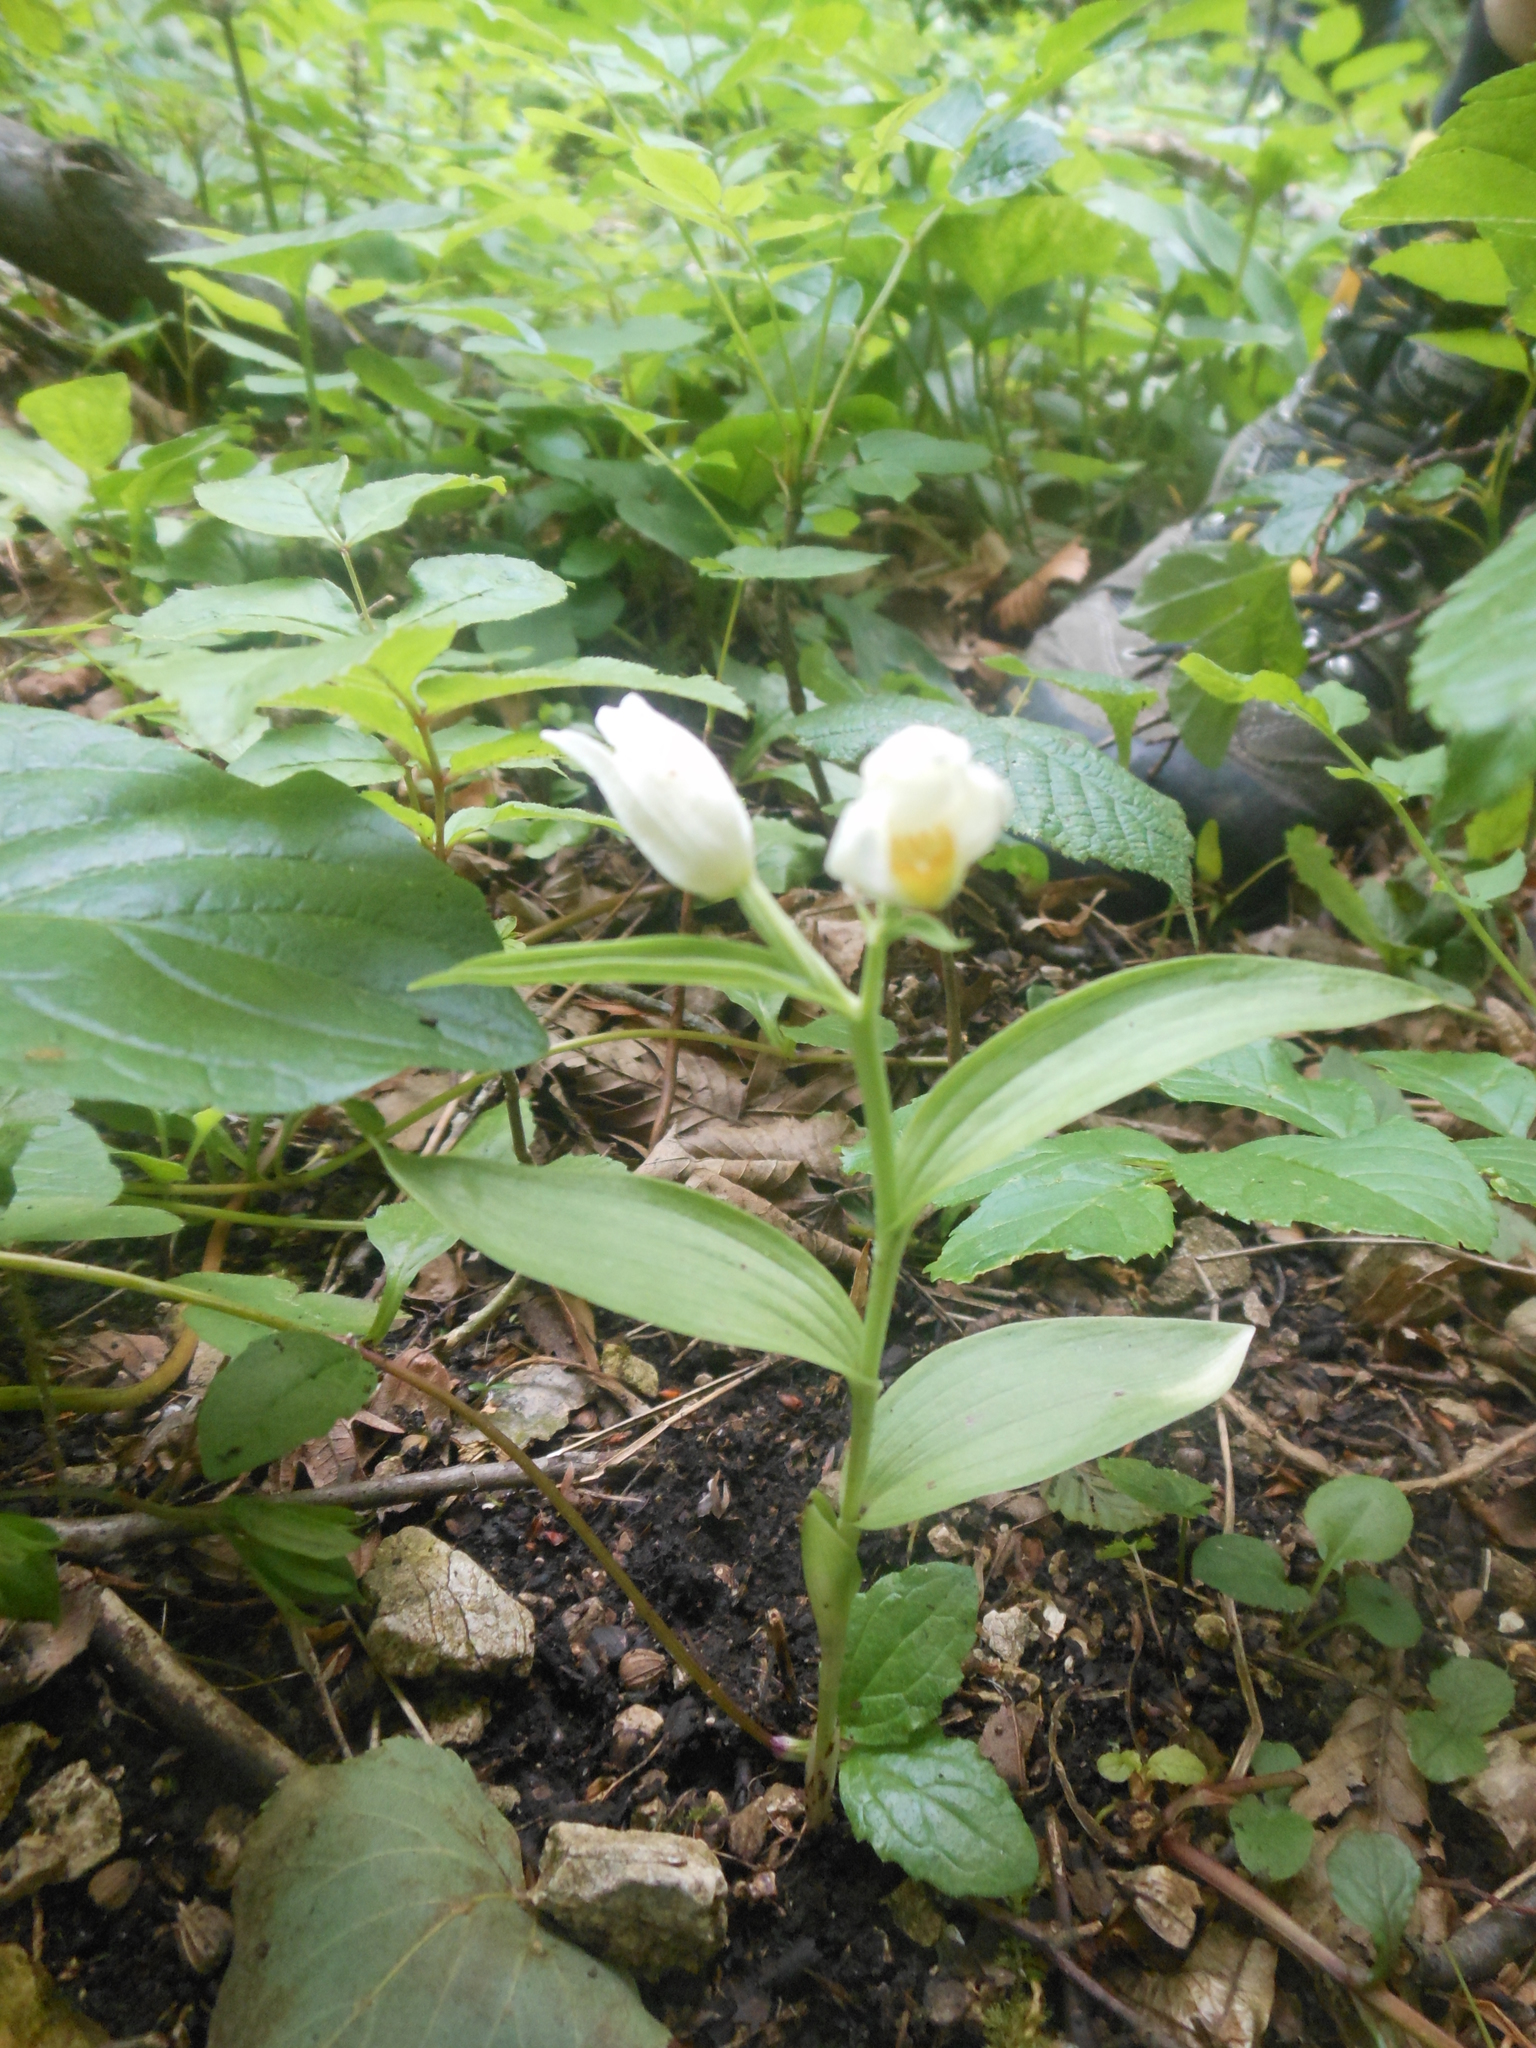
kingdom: Plantae
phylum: Tracheophyta
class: Liliopsida
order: Asparagales
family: Orchidaceae
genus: Cephalanthera
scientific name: Cephalanthera damasonium
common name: White helleborine
